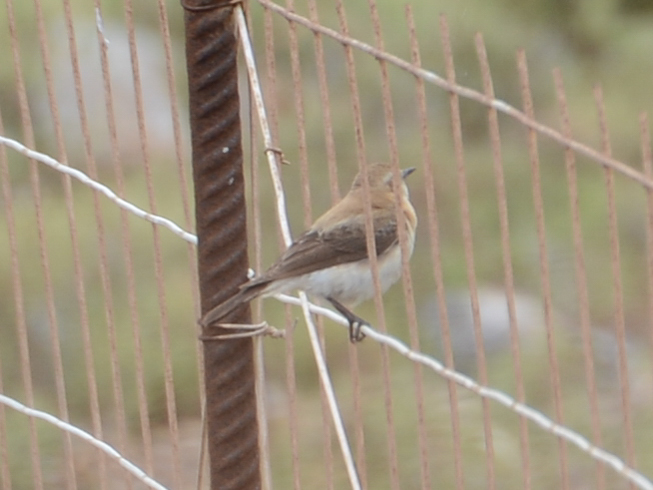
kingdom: Animalia
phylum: Chordata
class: Aves
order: Passeriformes
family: Muscicapidae
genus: Oenanthe
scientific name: Oenanthe oenanthe
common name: Northern wheatear
